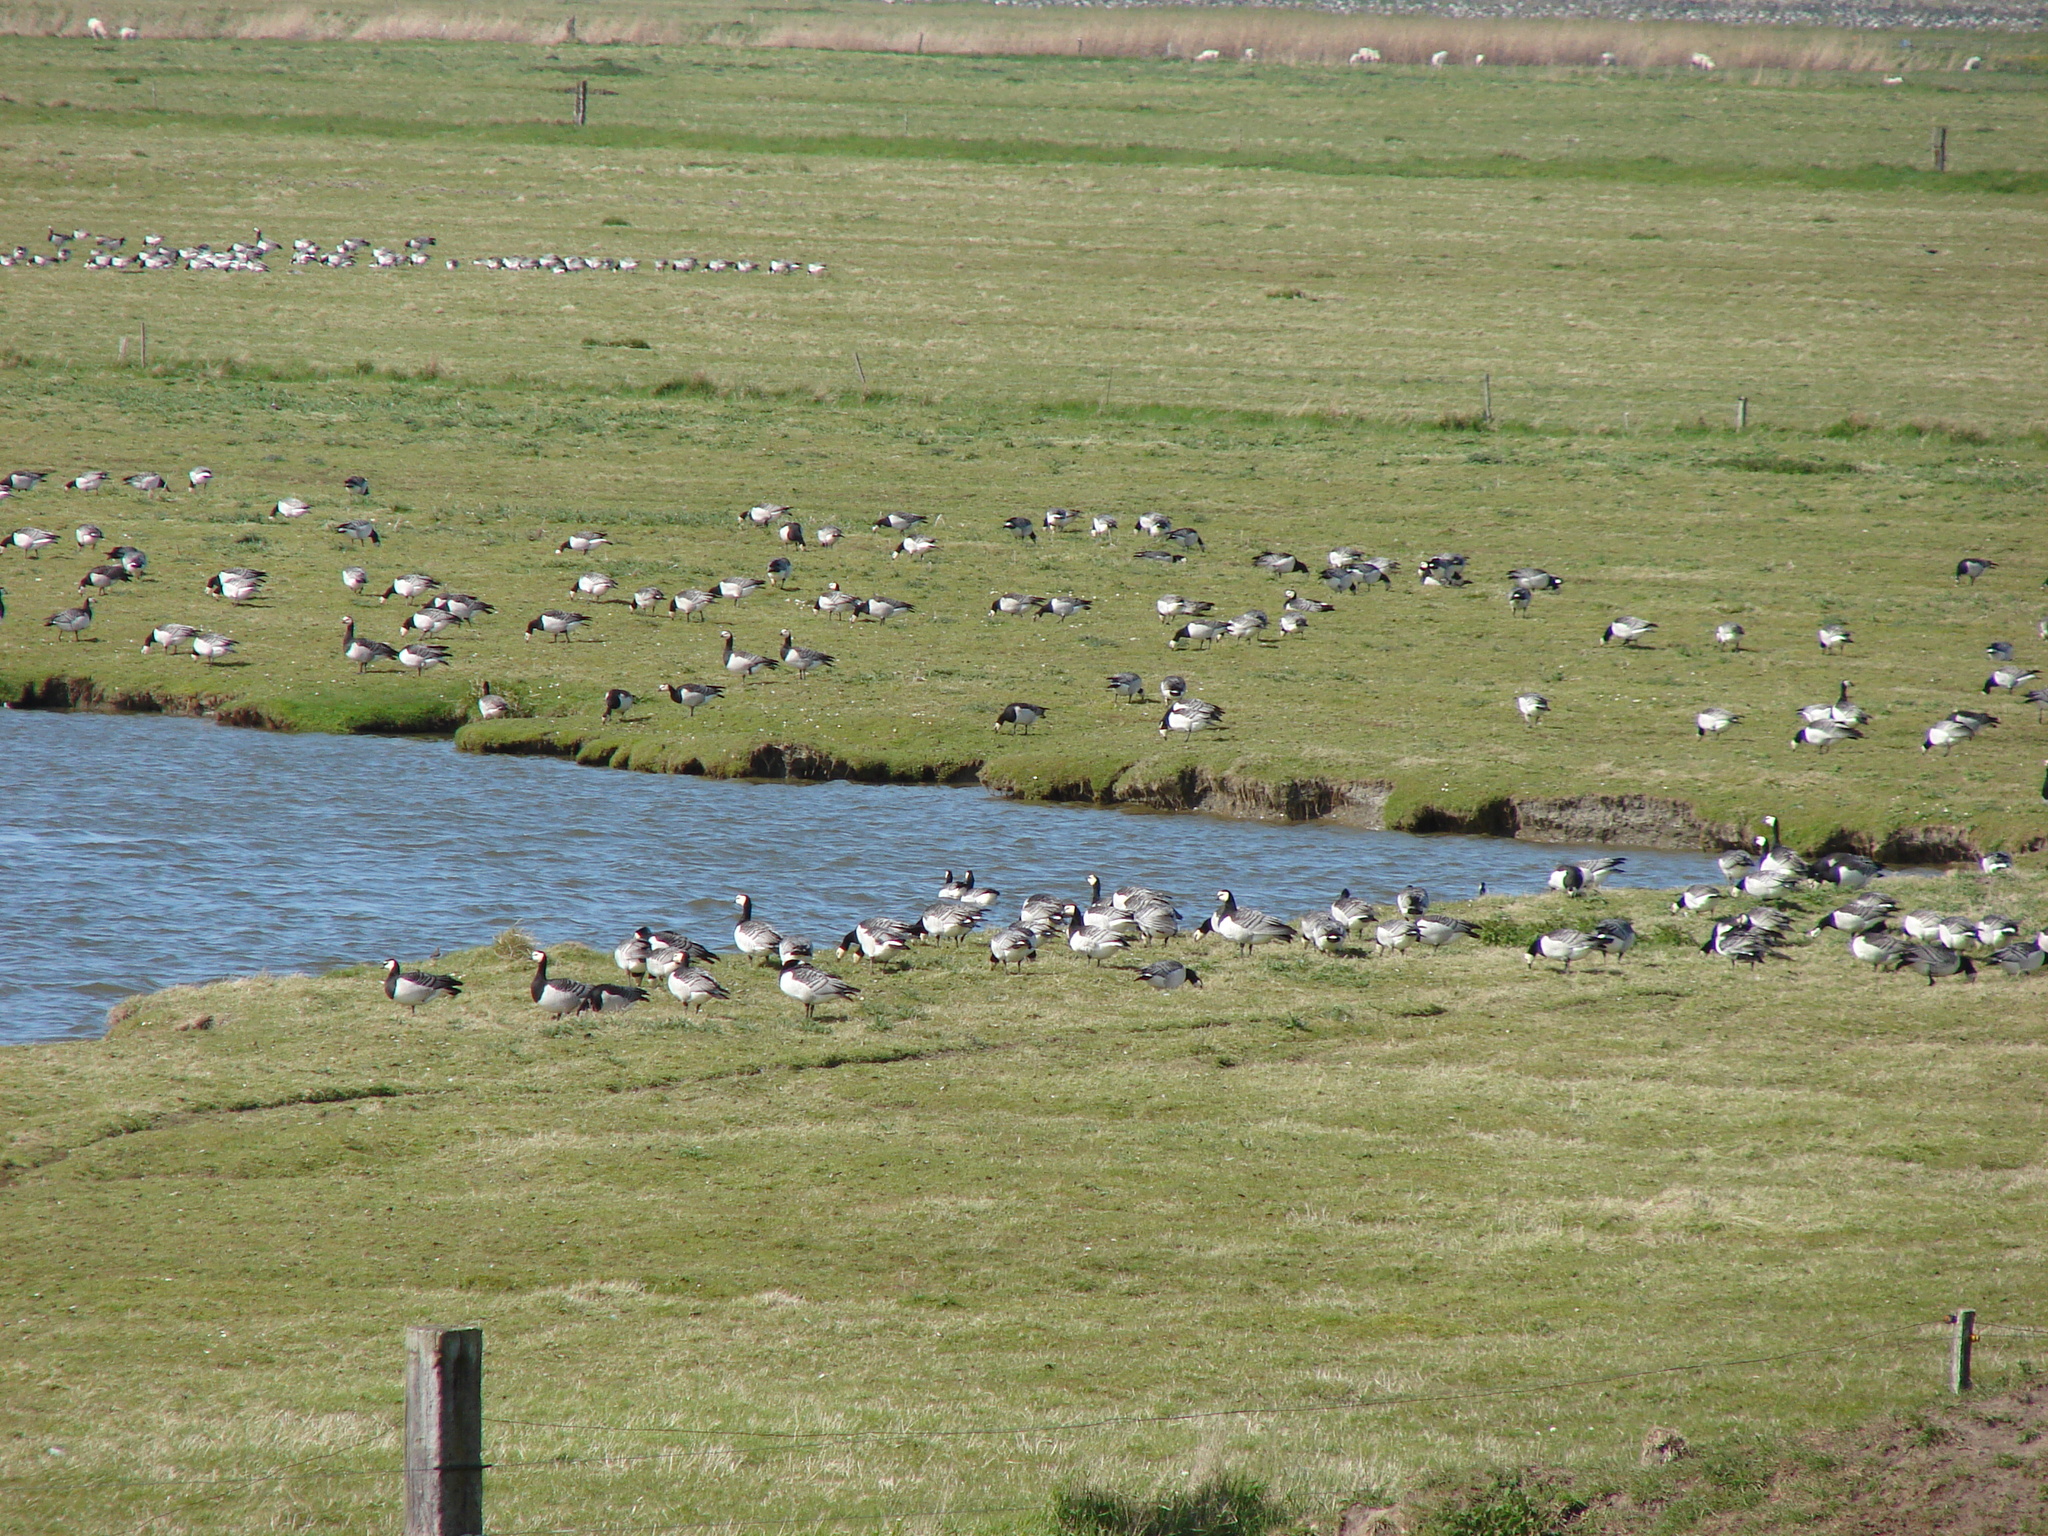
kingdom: Animalia
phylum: Chordata
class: Aves
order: Anseriformes
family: Anatidae
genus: Branta
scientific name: Branta leucopsis
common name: Barnacle goose
